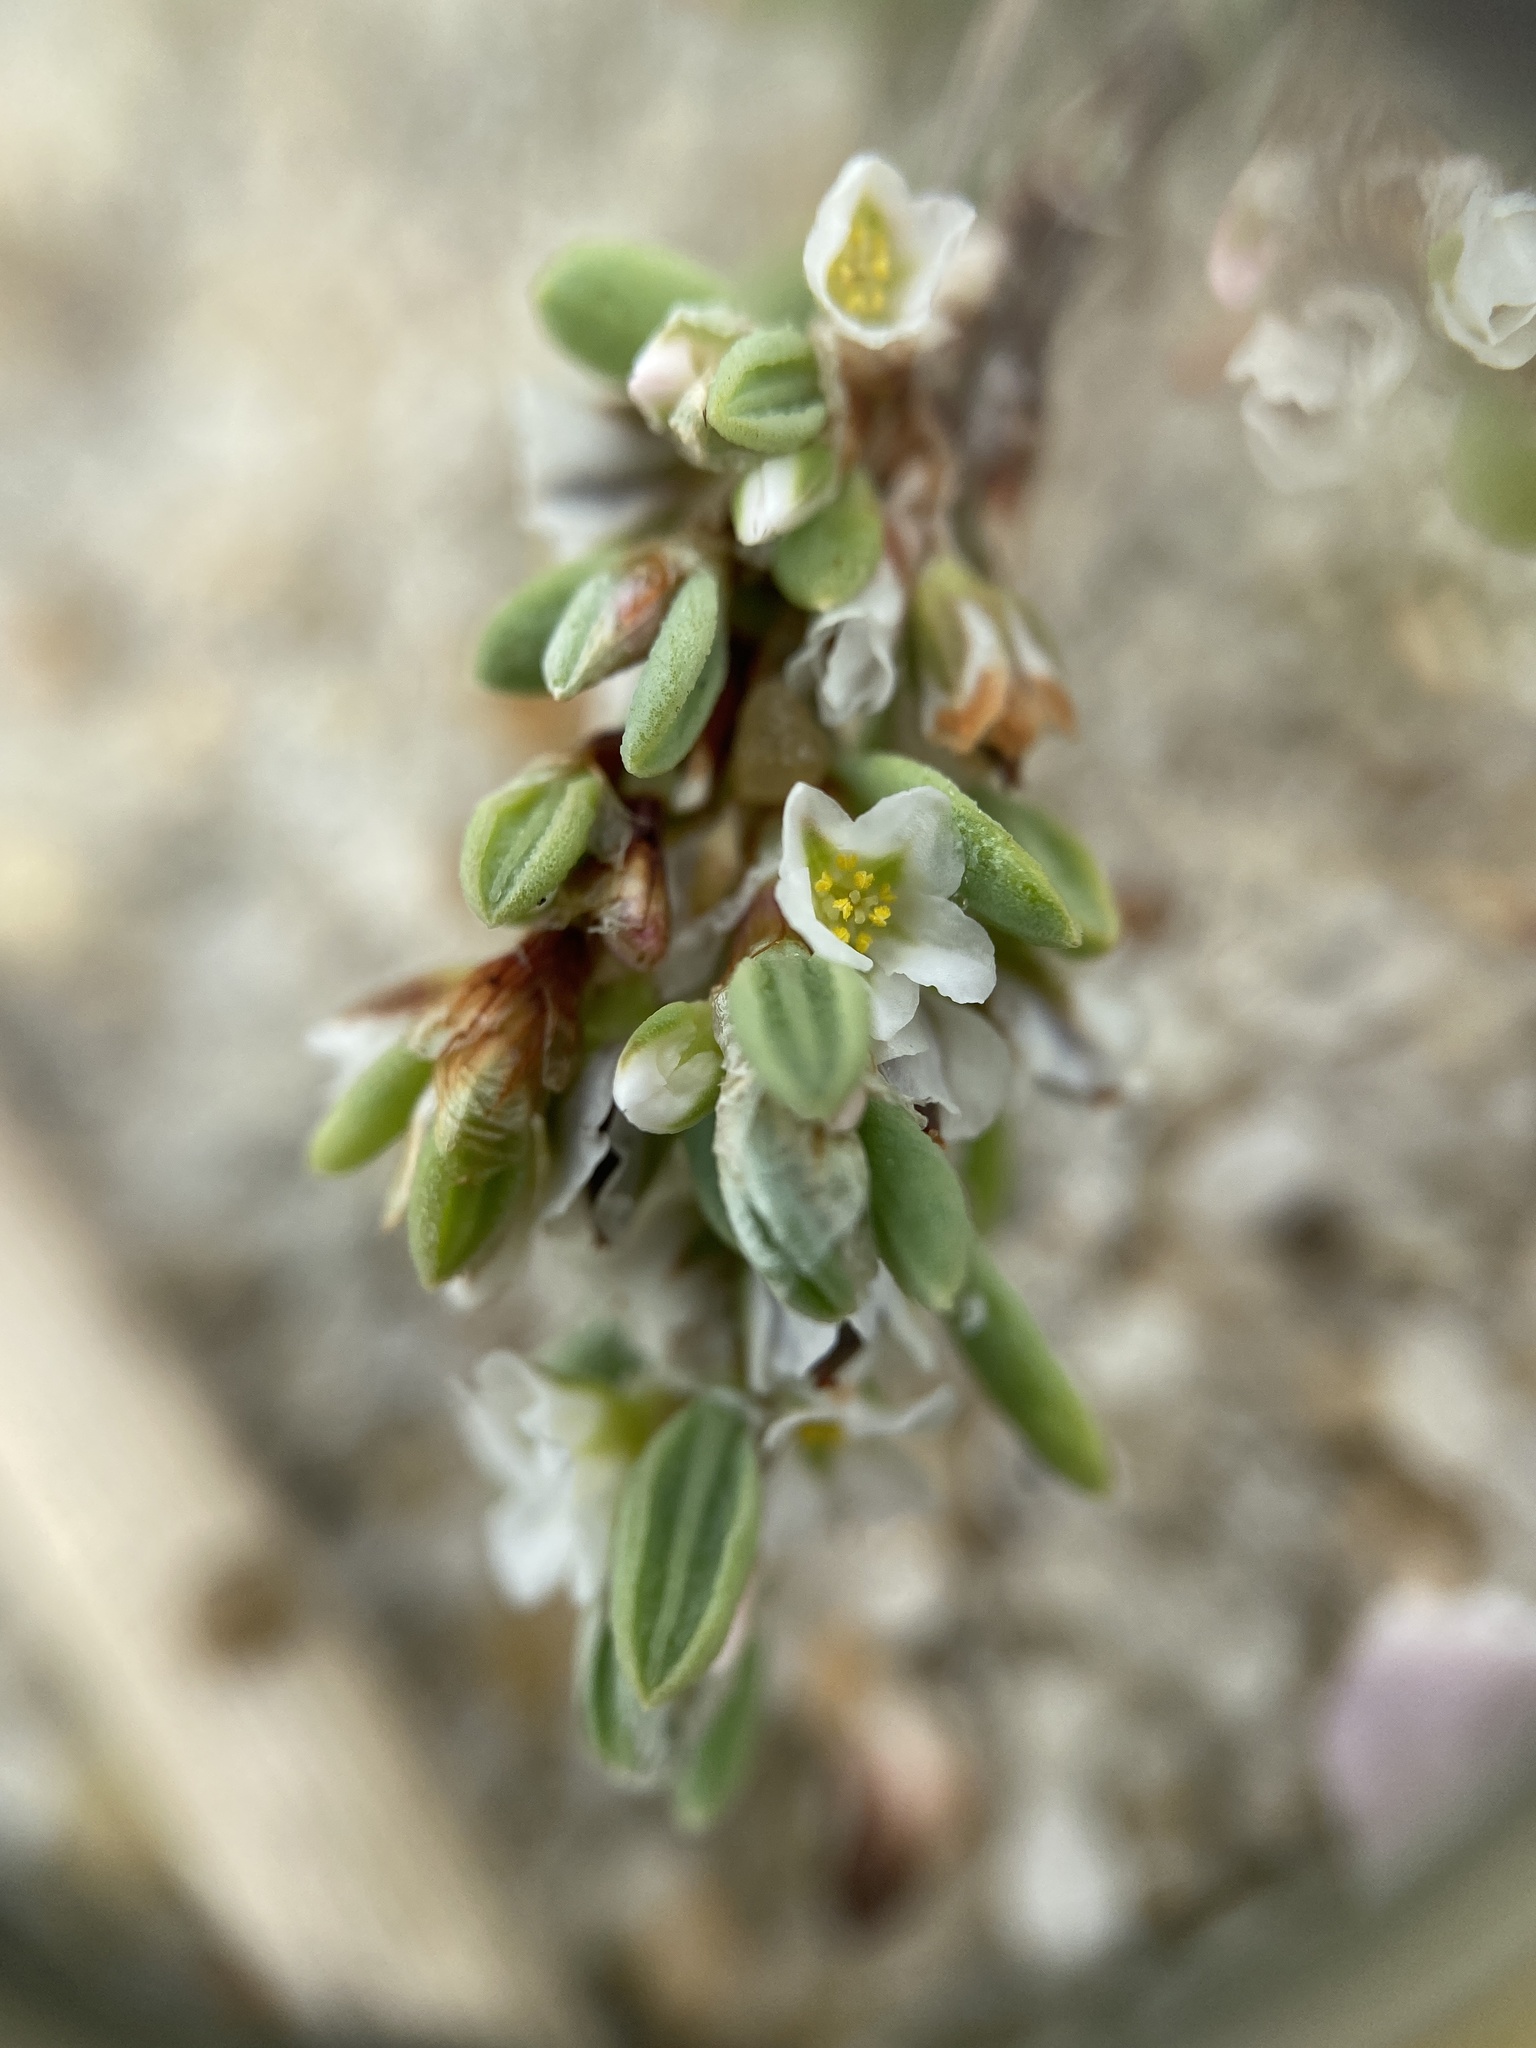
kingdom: Plantae
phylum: Tracheophyta
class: Magnoliopsida
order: Caryophyllales
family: Polygonaceae
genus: Polygonum
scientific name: Polygonum glaucum
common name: Seaside knotweed
